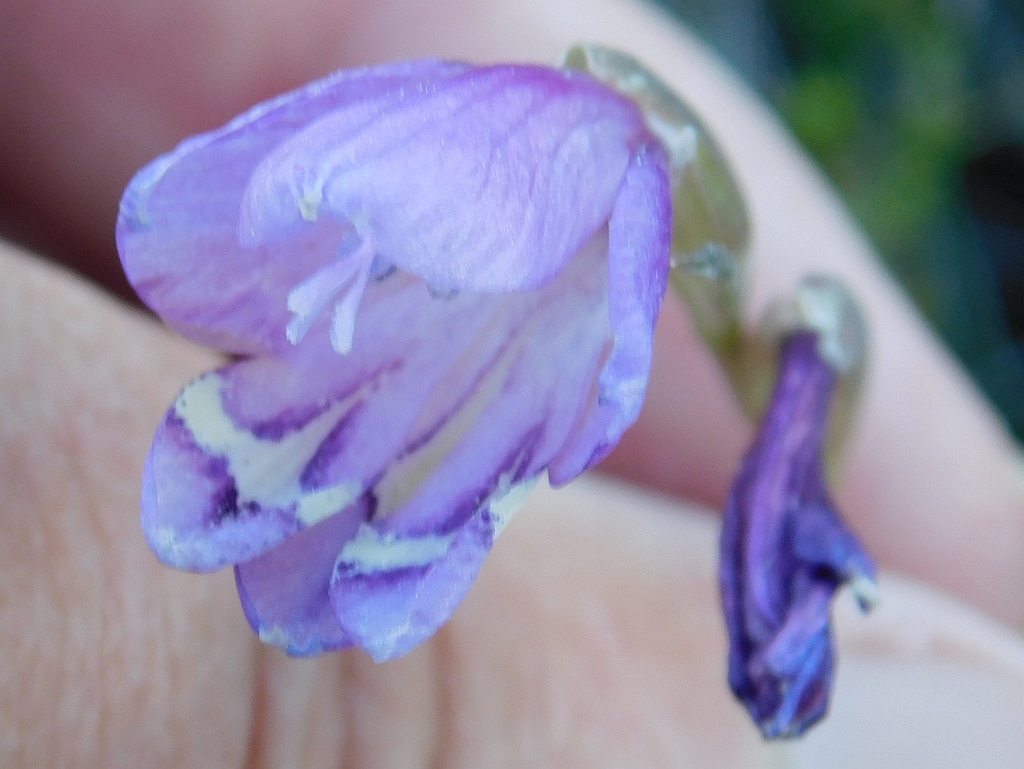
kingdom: Plantae
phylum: Tracheophyta
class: Liliopsida
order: Asparagales
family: Iridaceae
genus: Gladiolus
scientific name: Gladiolus patersoniae
